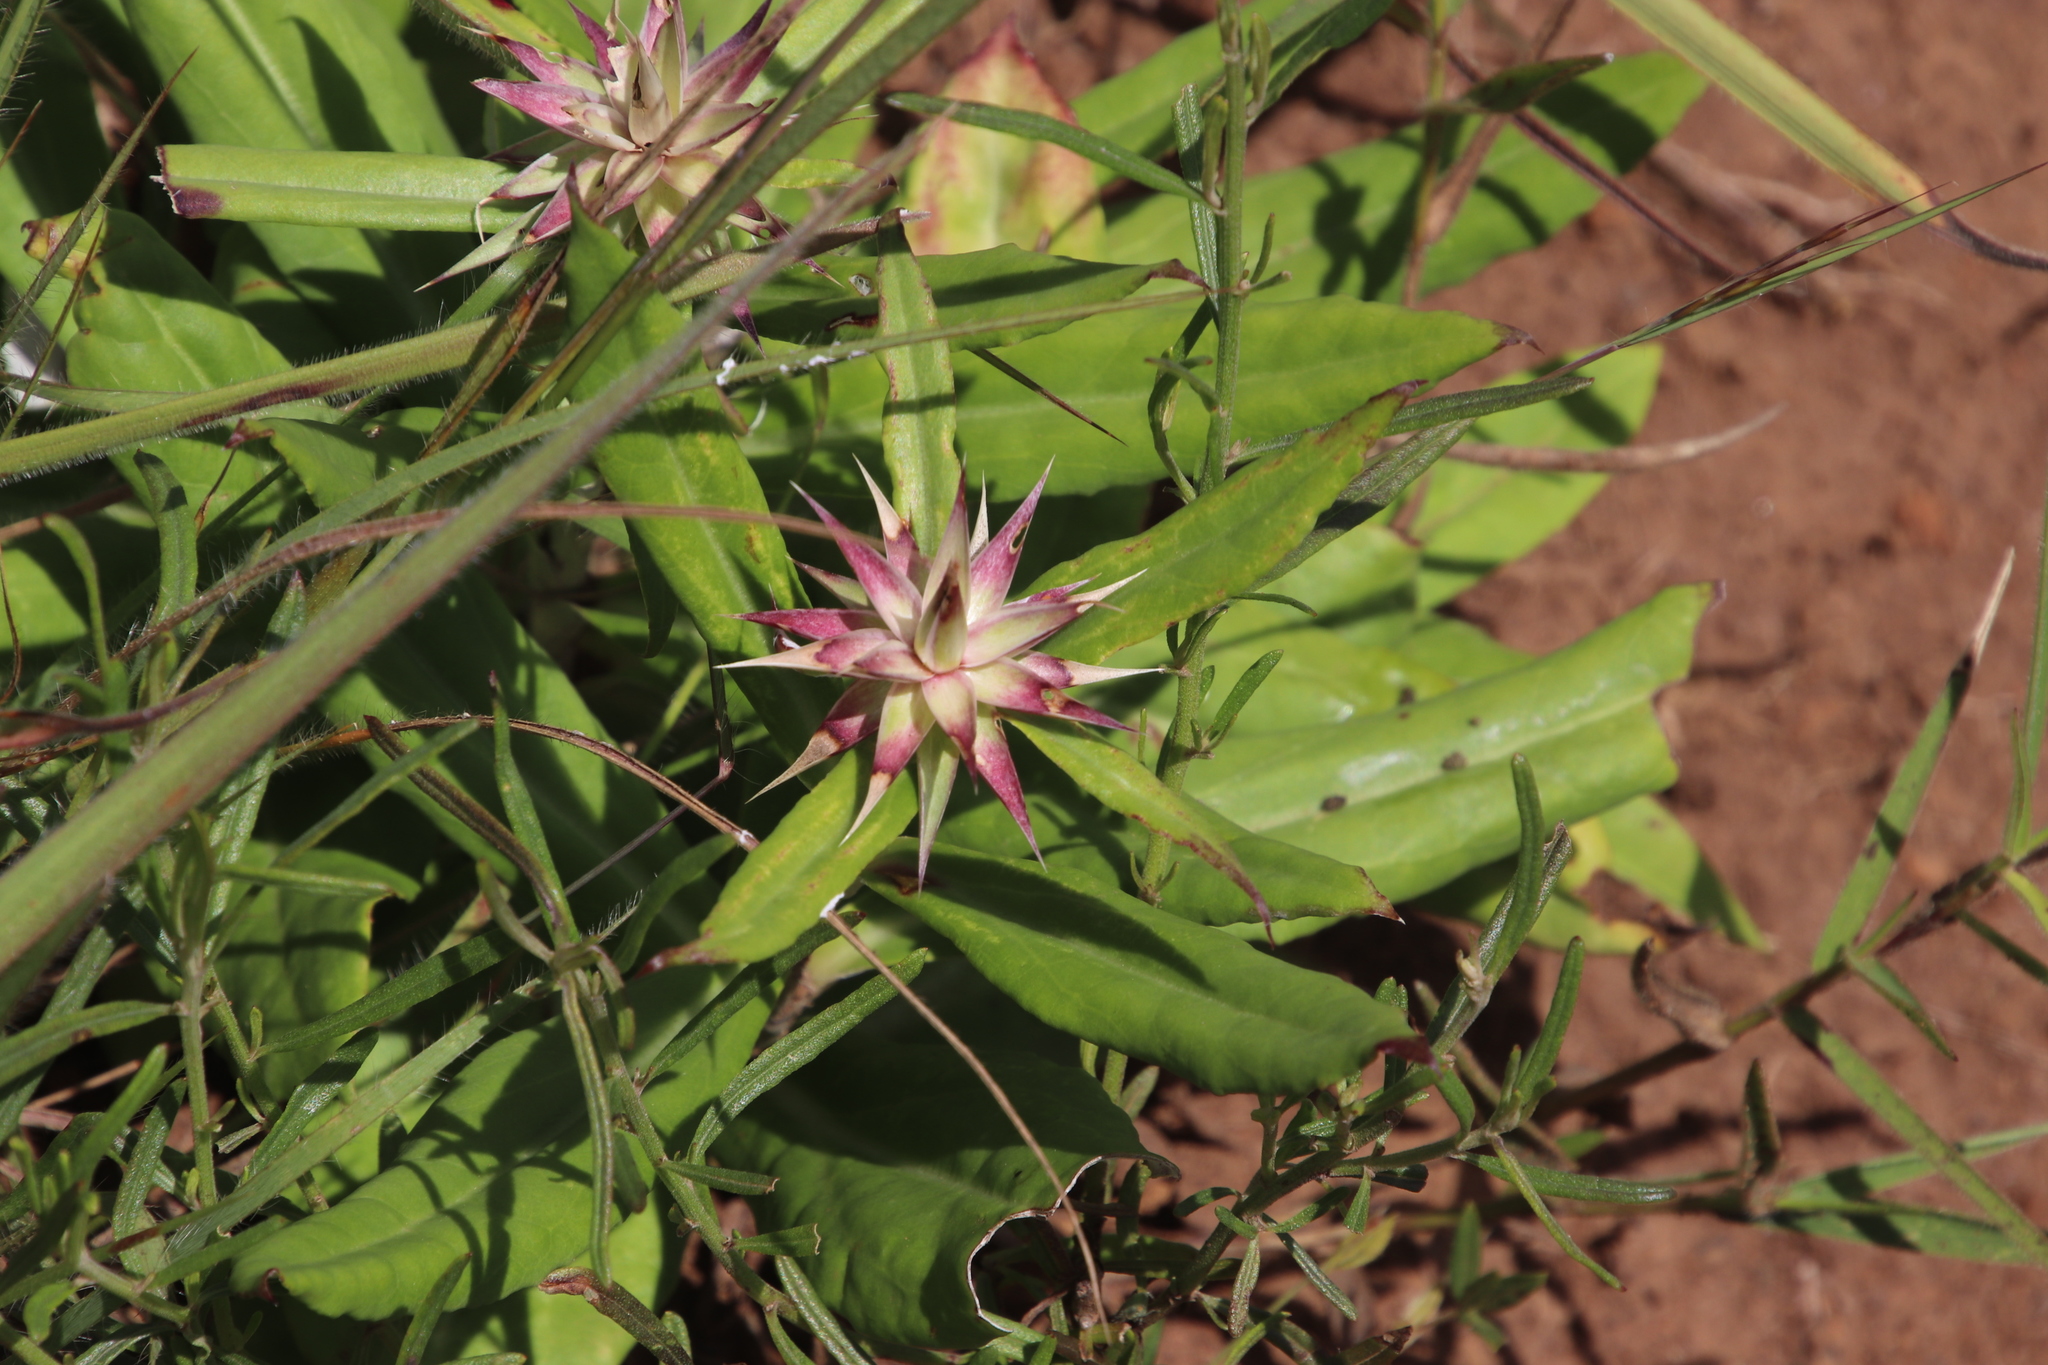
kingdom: Plantae
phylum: Tracheophyta
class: Magnoliopsida
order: Asterales
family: Asteraceae
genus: Macledium
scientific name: Macledium zeyheri
